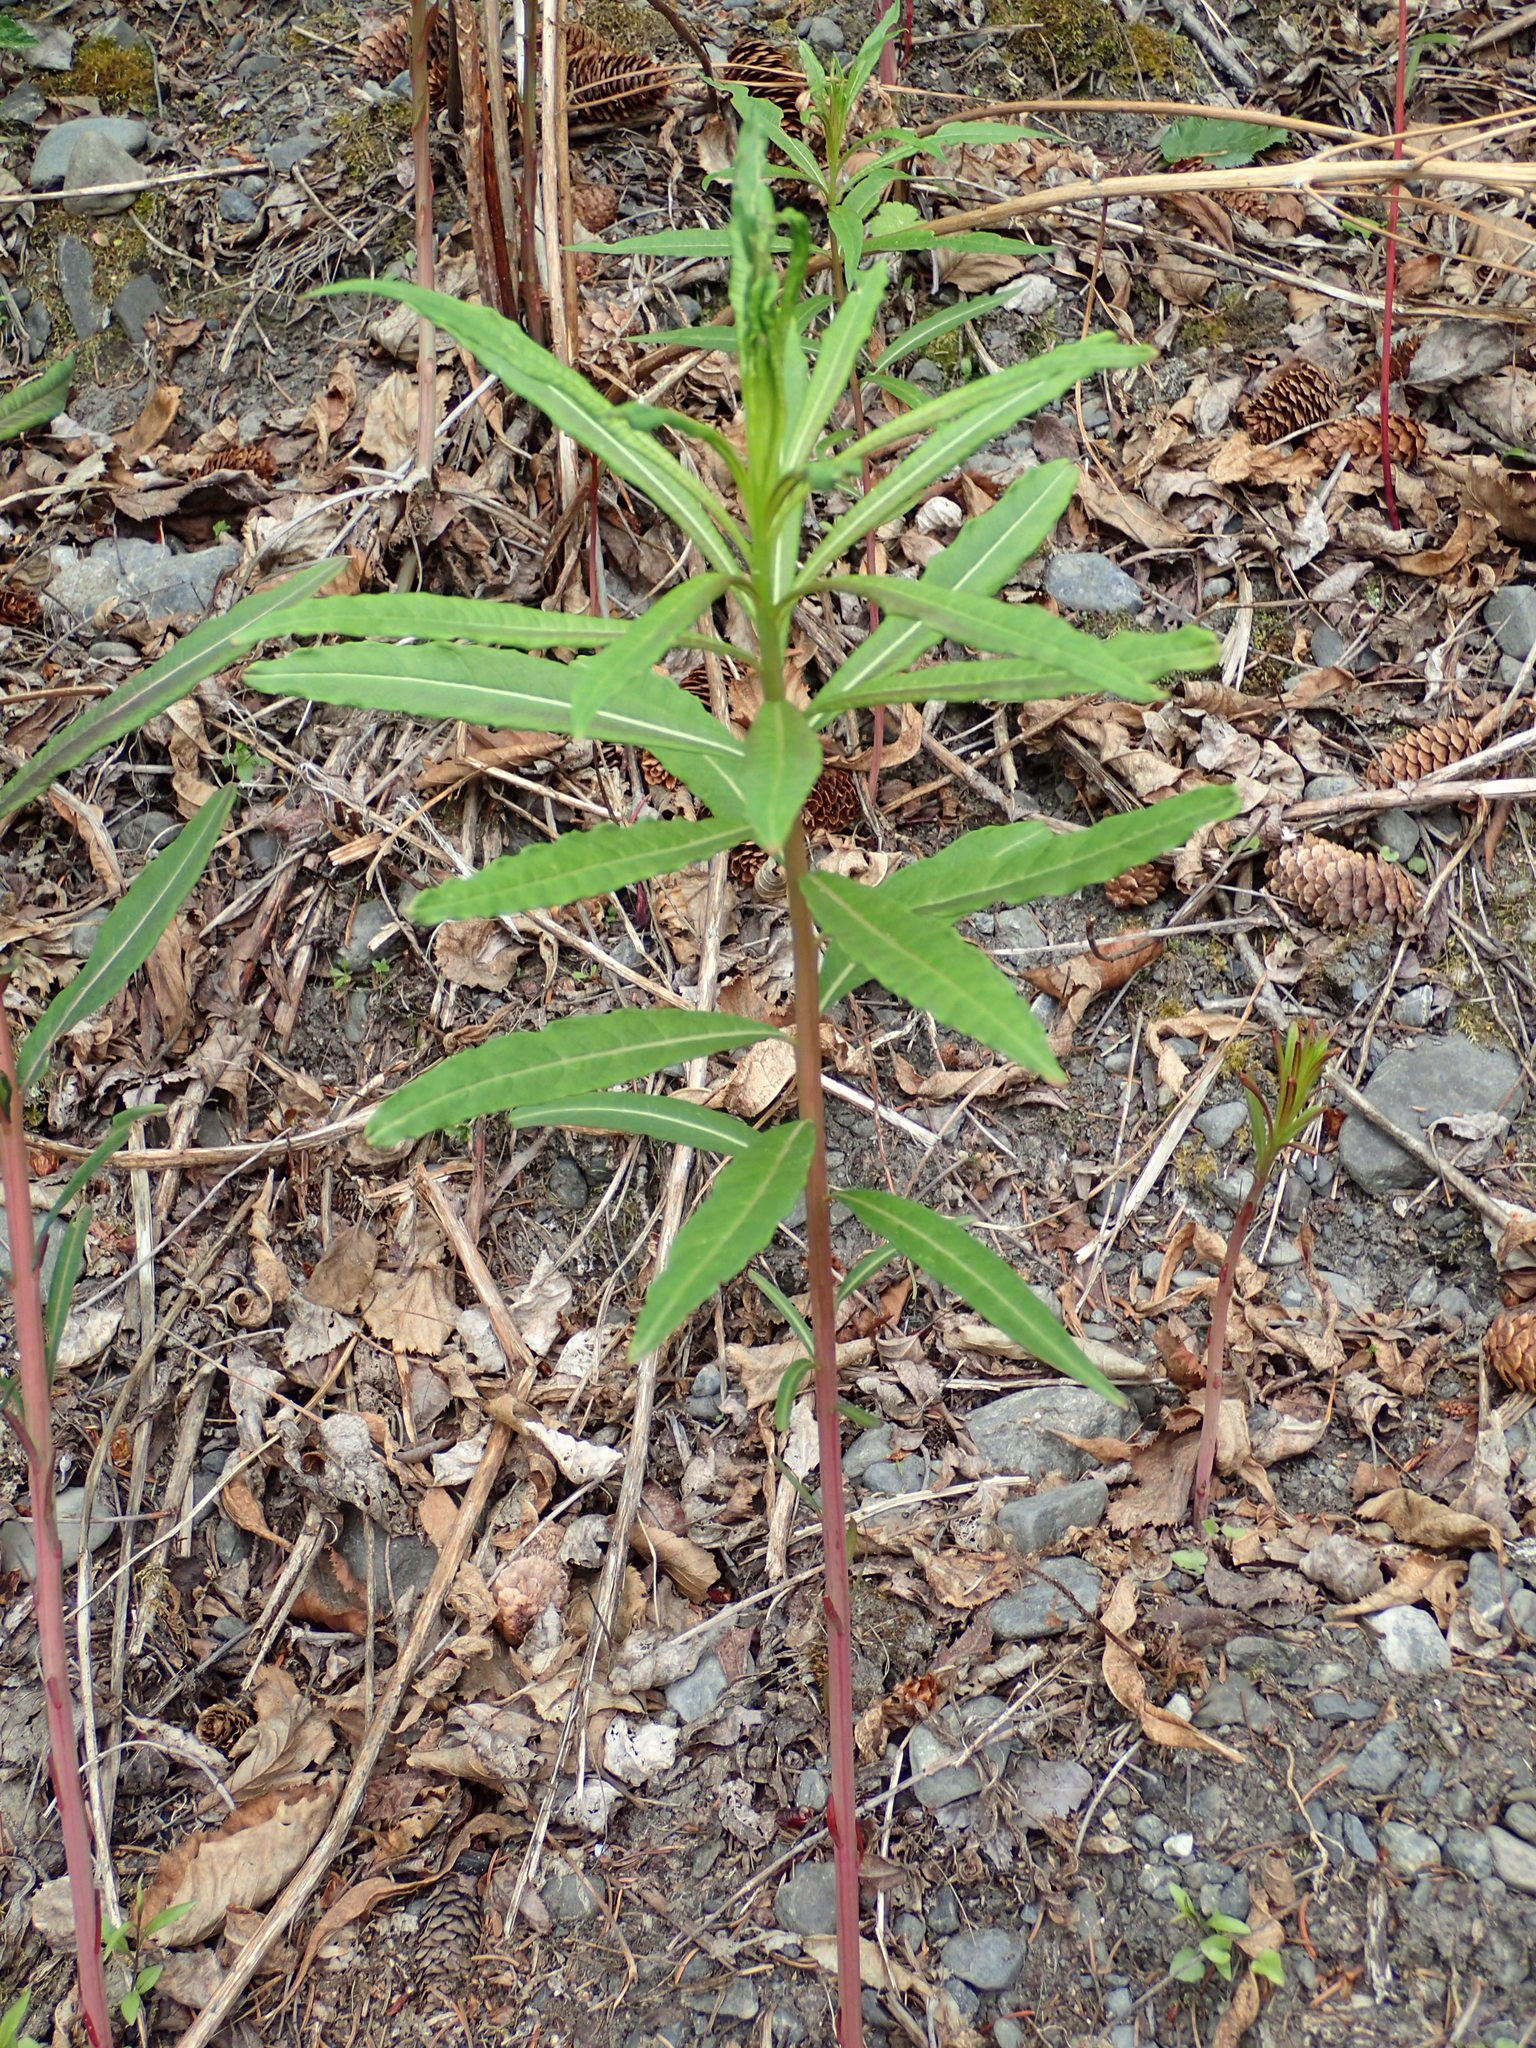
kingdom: Plantae
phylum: Tracheophyta
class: Magnoliopsida
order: Myrtales
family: Onagraceae
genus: Chamaenerion
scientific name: Chamaenerion angustifolium
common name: Fireweed
